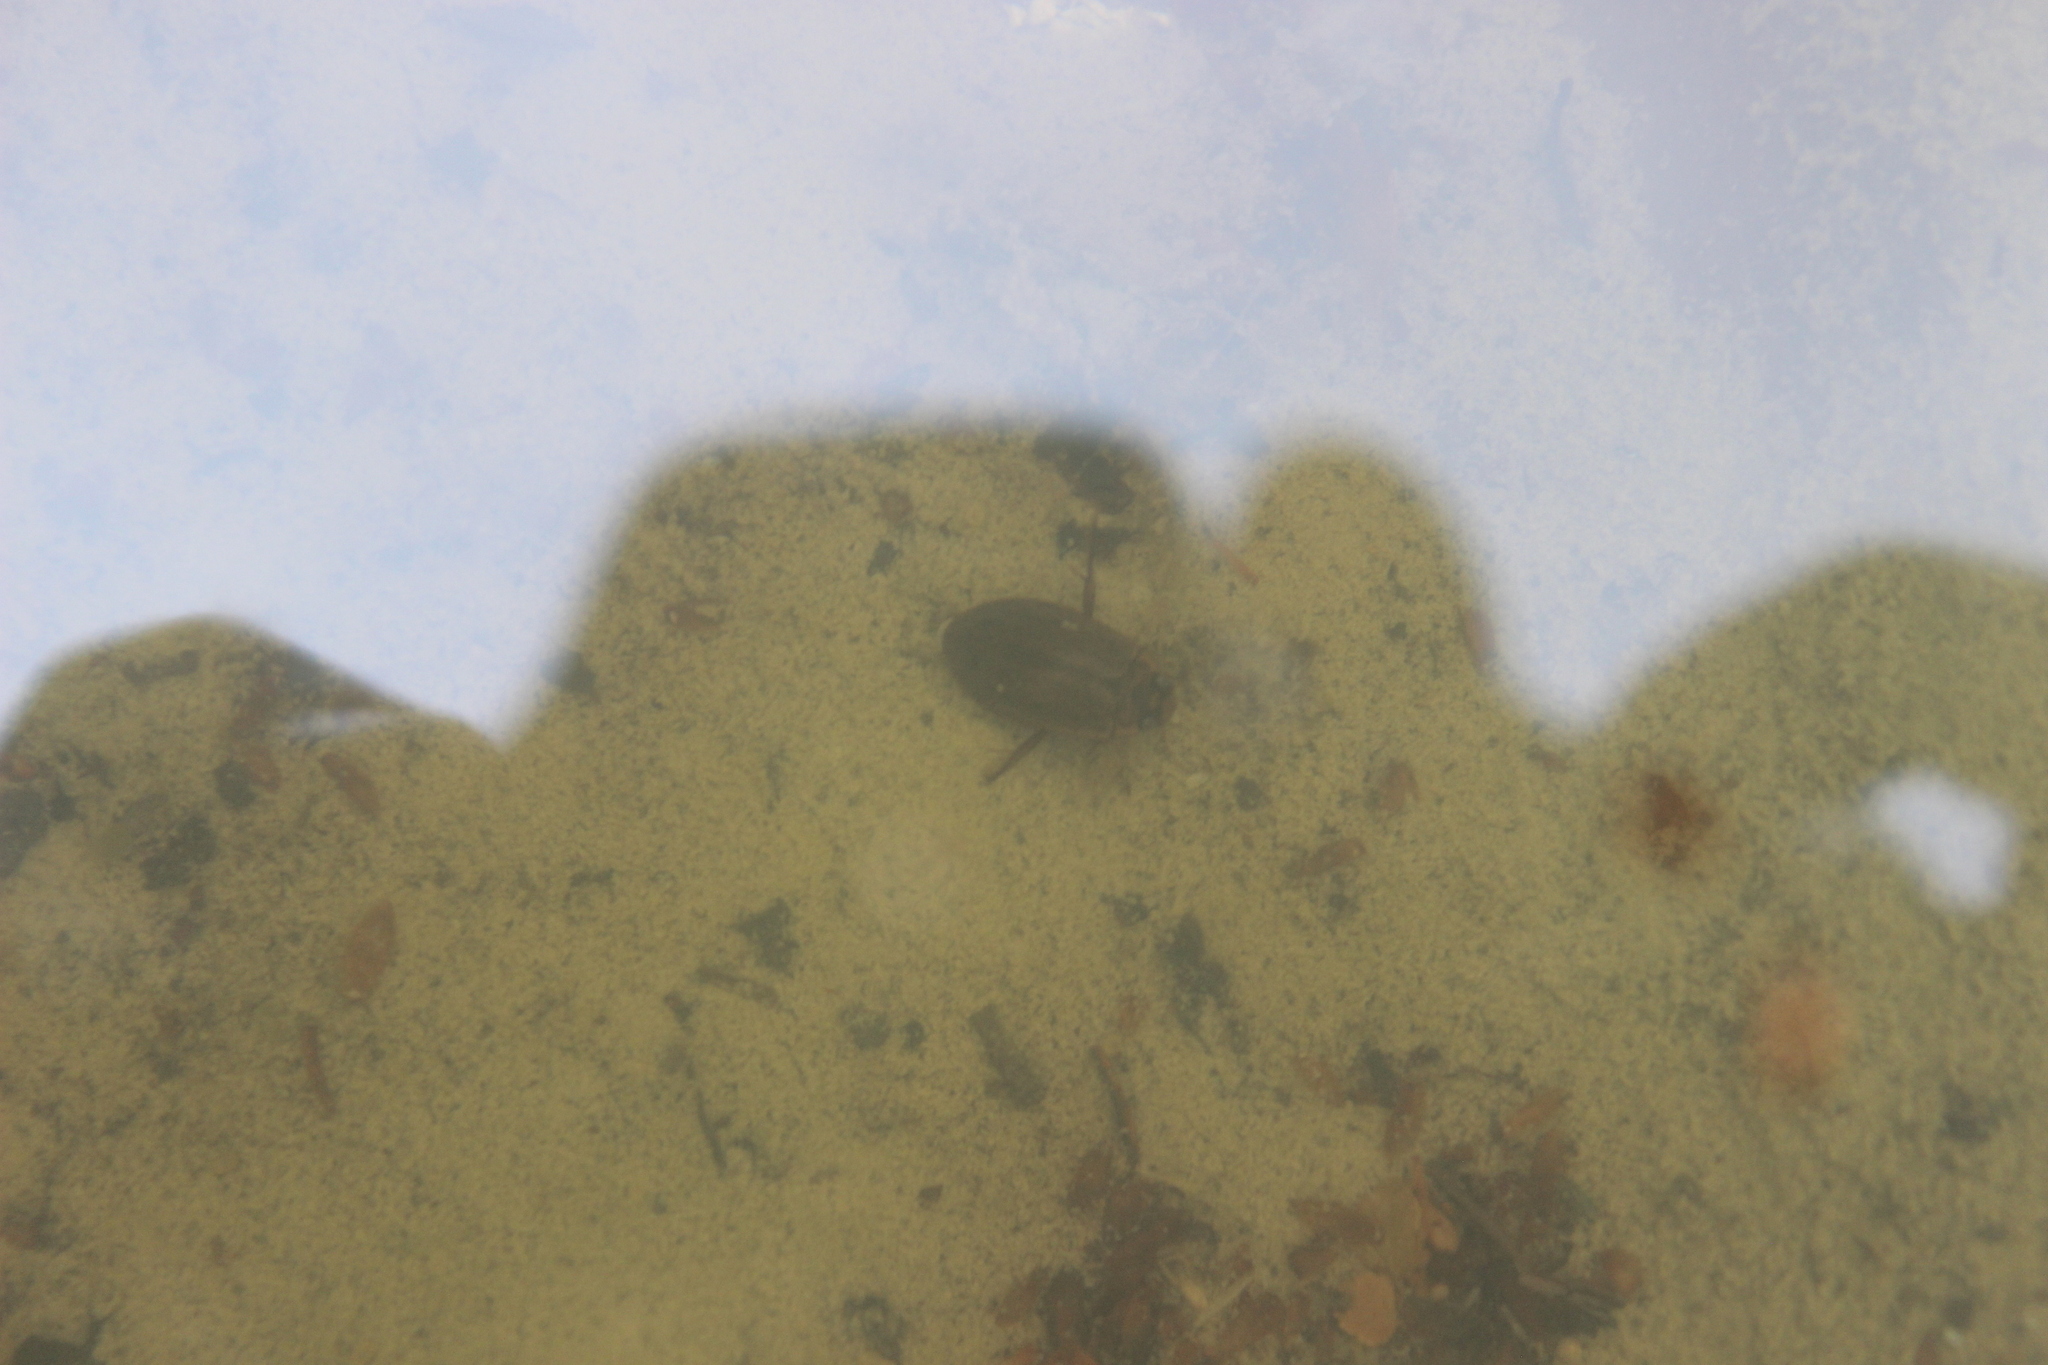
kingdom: Animalia
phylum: Arthropoda
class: Insecta
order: Coleoptera
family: Dytiscidae
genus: Rhantus
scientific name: Rhantus suturalis
